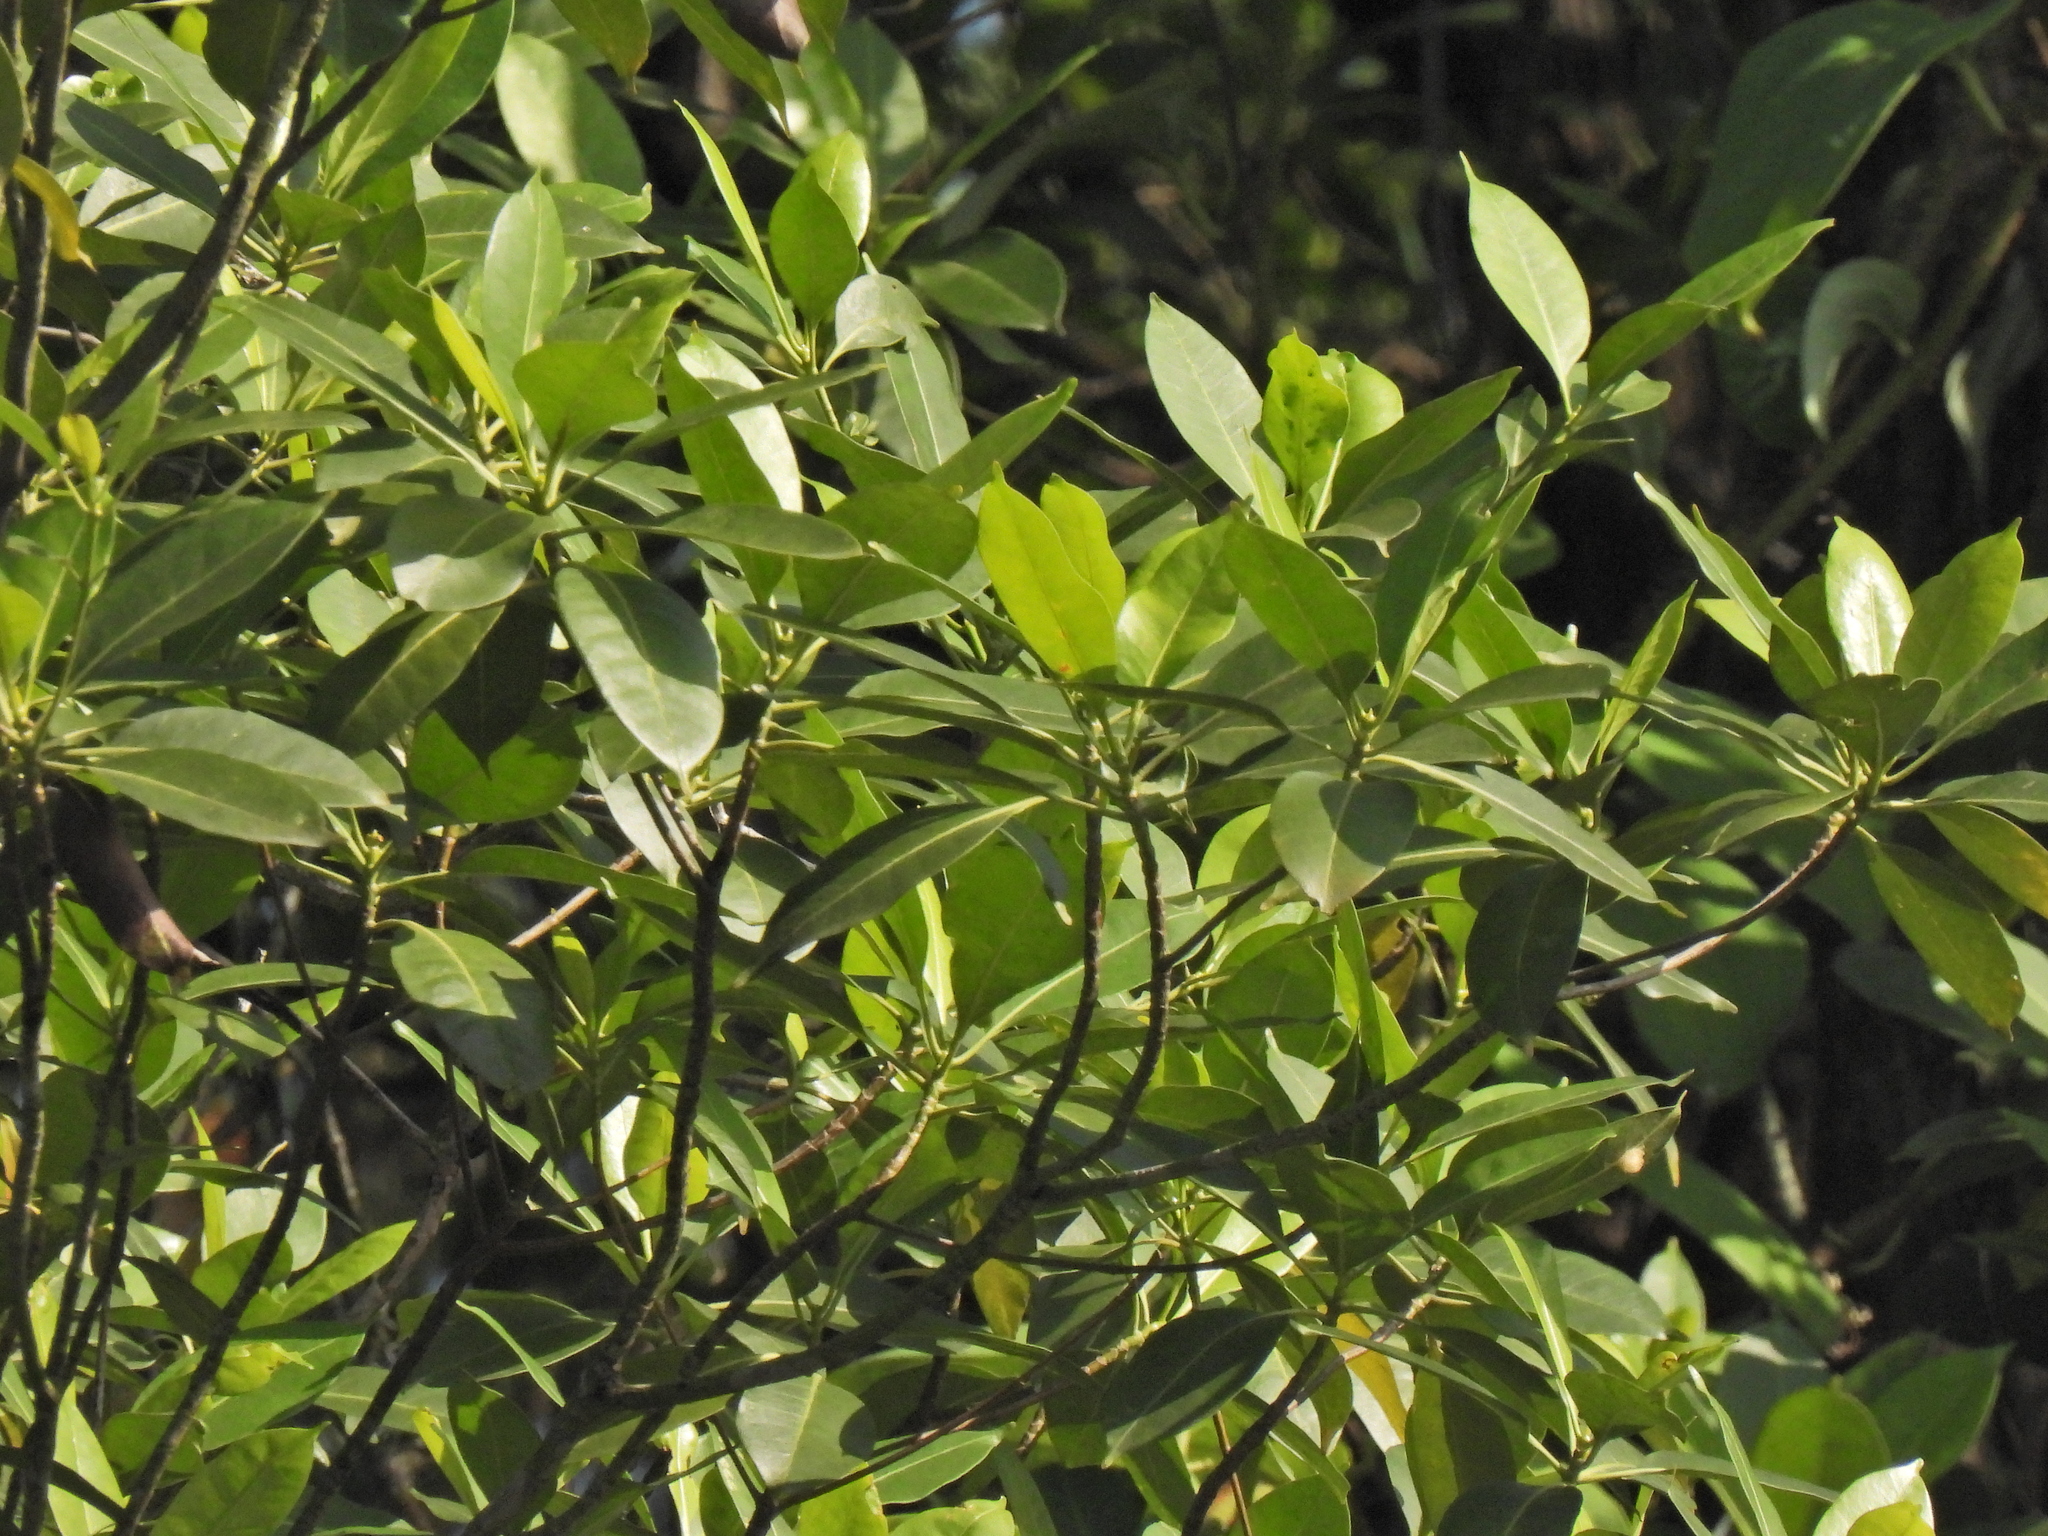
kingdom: Plantae
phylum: Tracheophyta
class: Magnoliopsida
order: Gentianales
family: Gentianaceae
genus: Cyrtophyllum
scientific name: Cyrtophyllum fragrans
